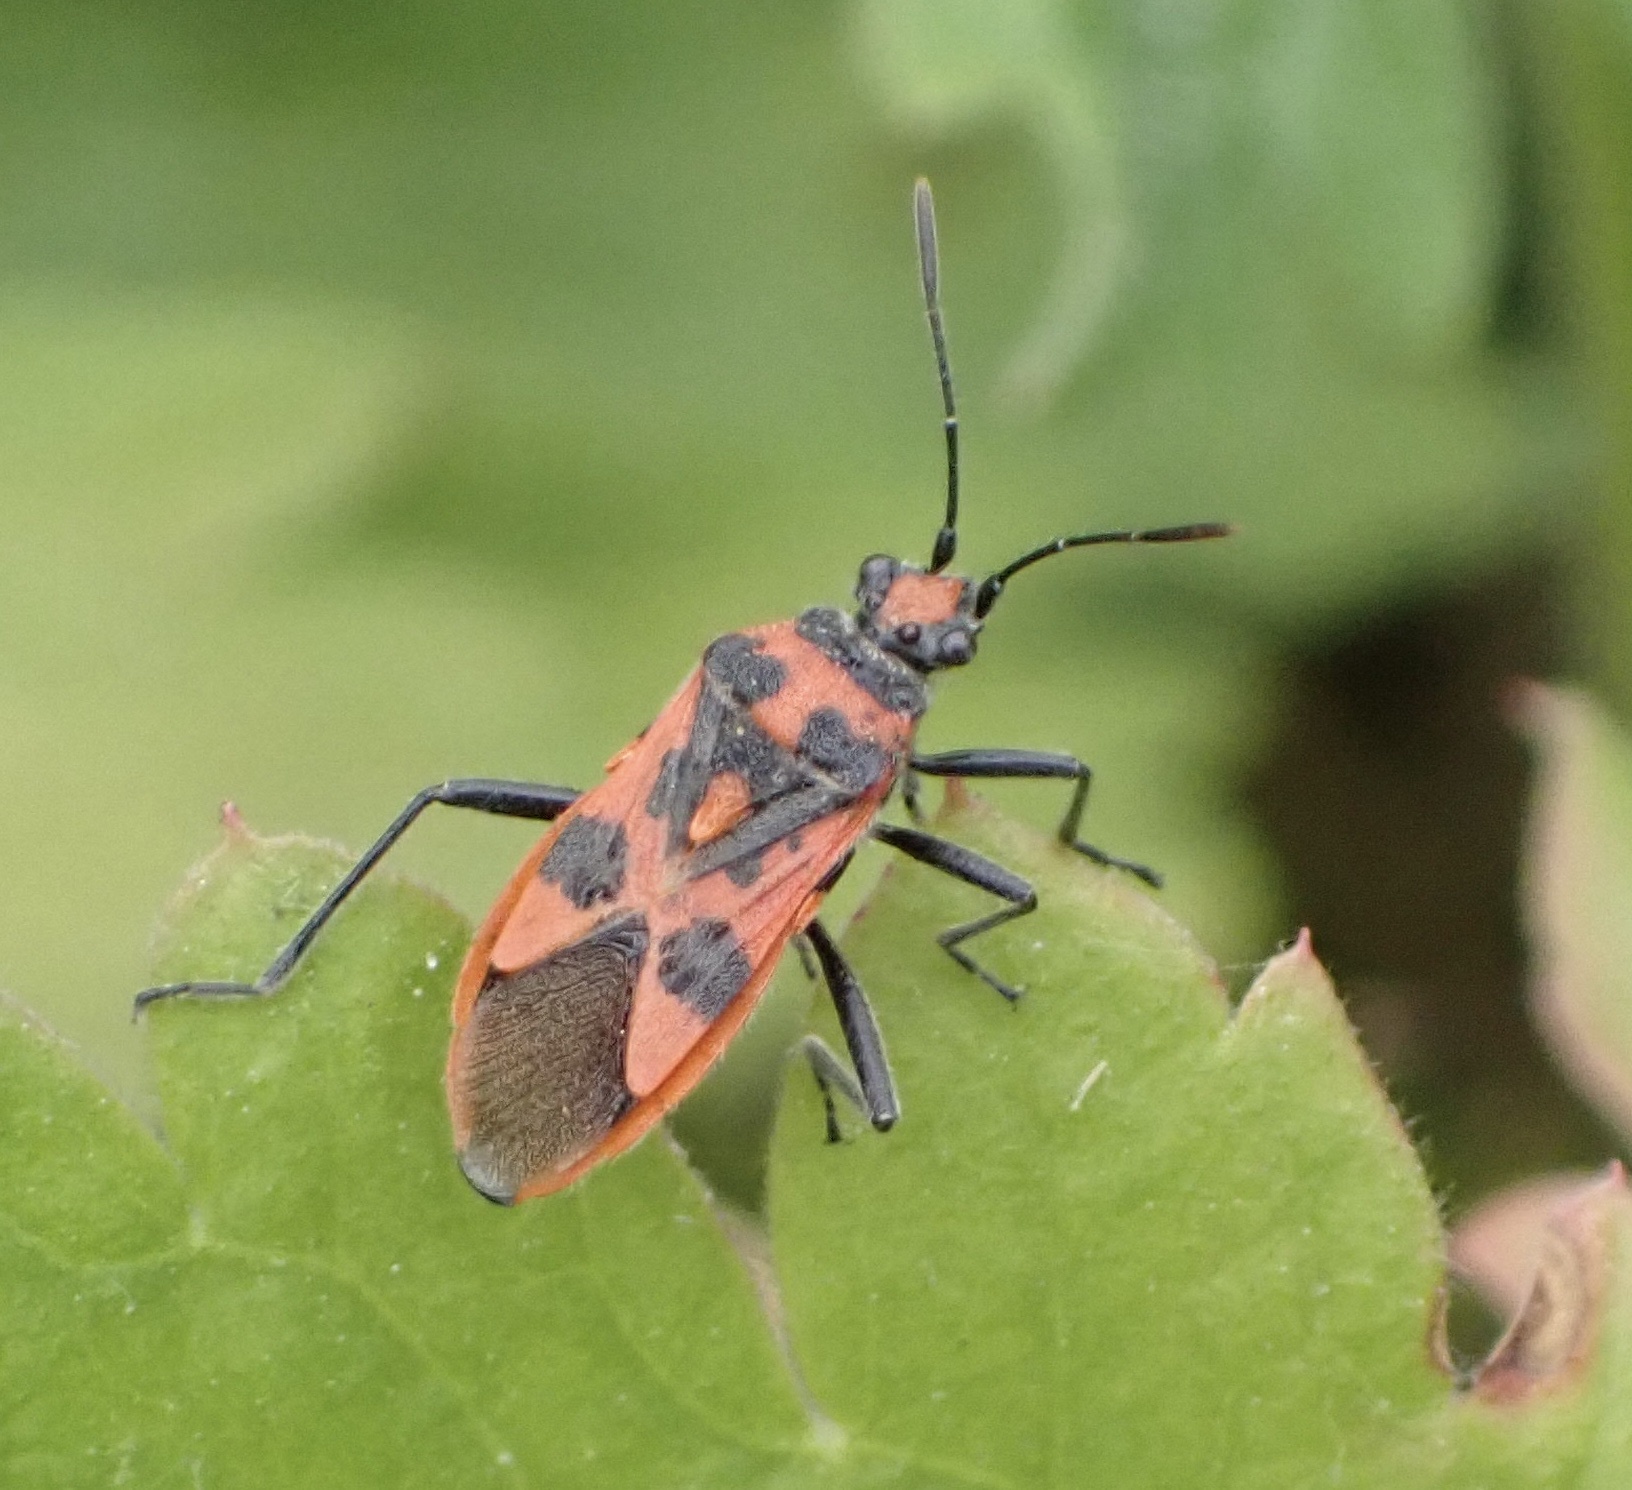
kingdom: Animalia
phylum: Arthropoda
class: Insecta
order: Hemiptera
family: Rhopalidae
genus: Corizus
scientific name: Corizus hyoscyami
